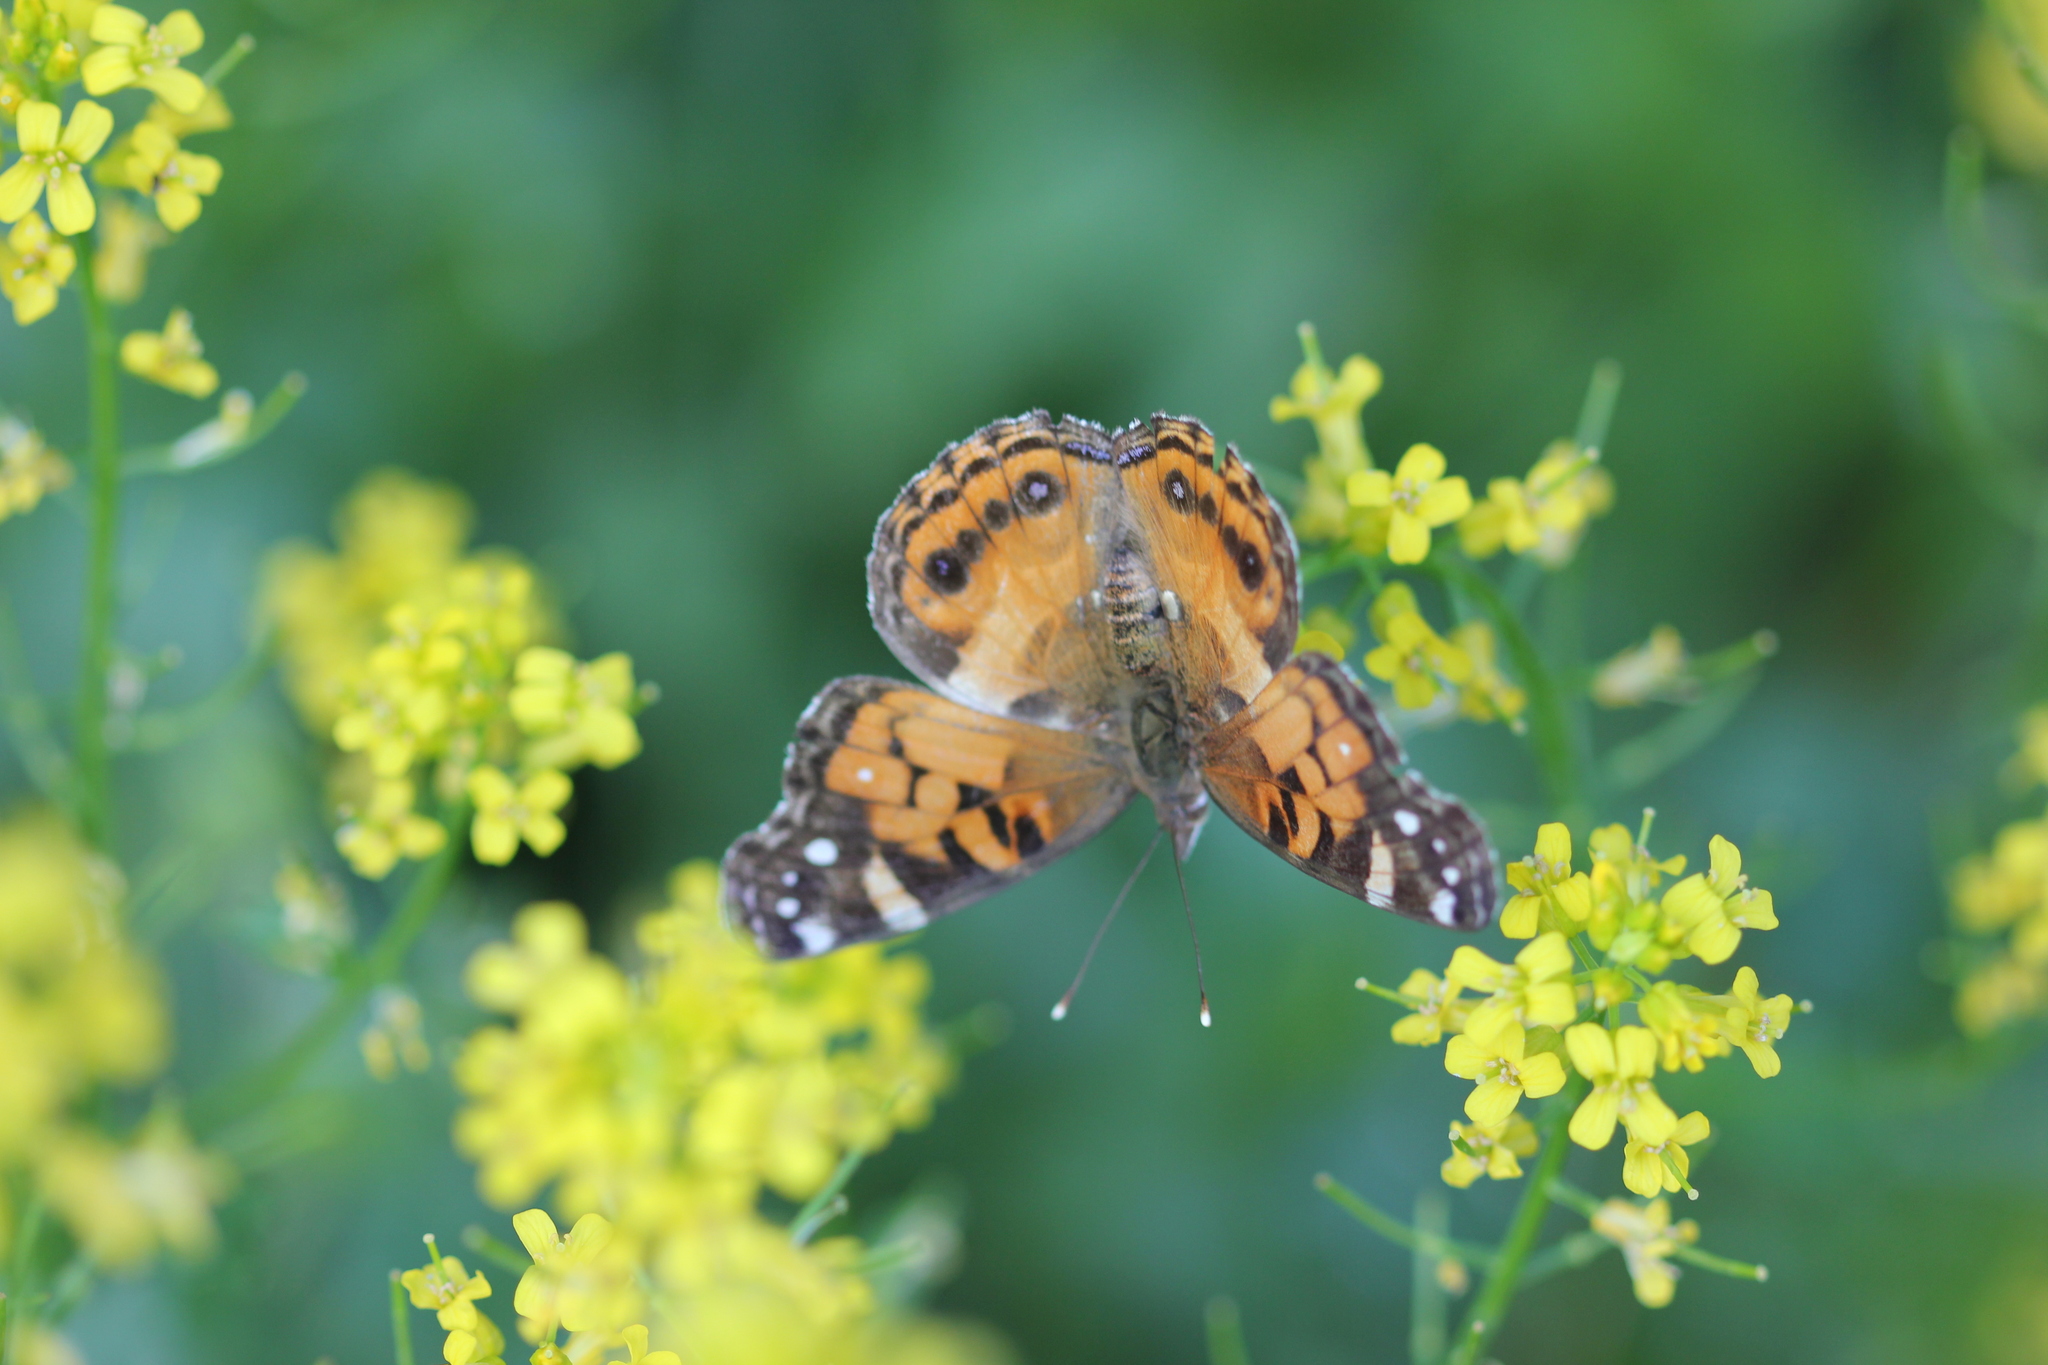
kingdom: Animalia
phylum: Arthropoda
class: Insecta
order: Lepidoptera
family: Nymphalidae
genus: Vanessa
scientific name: Vanessa virginiensis
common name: American lady
